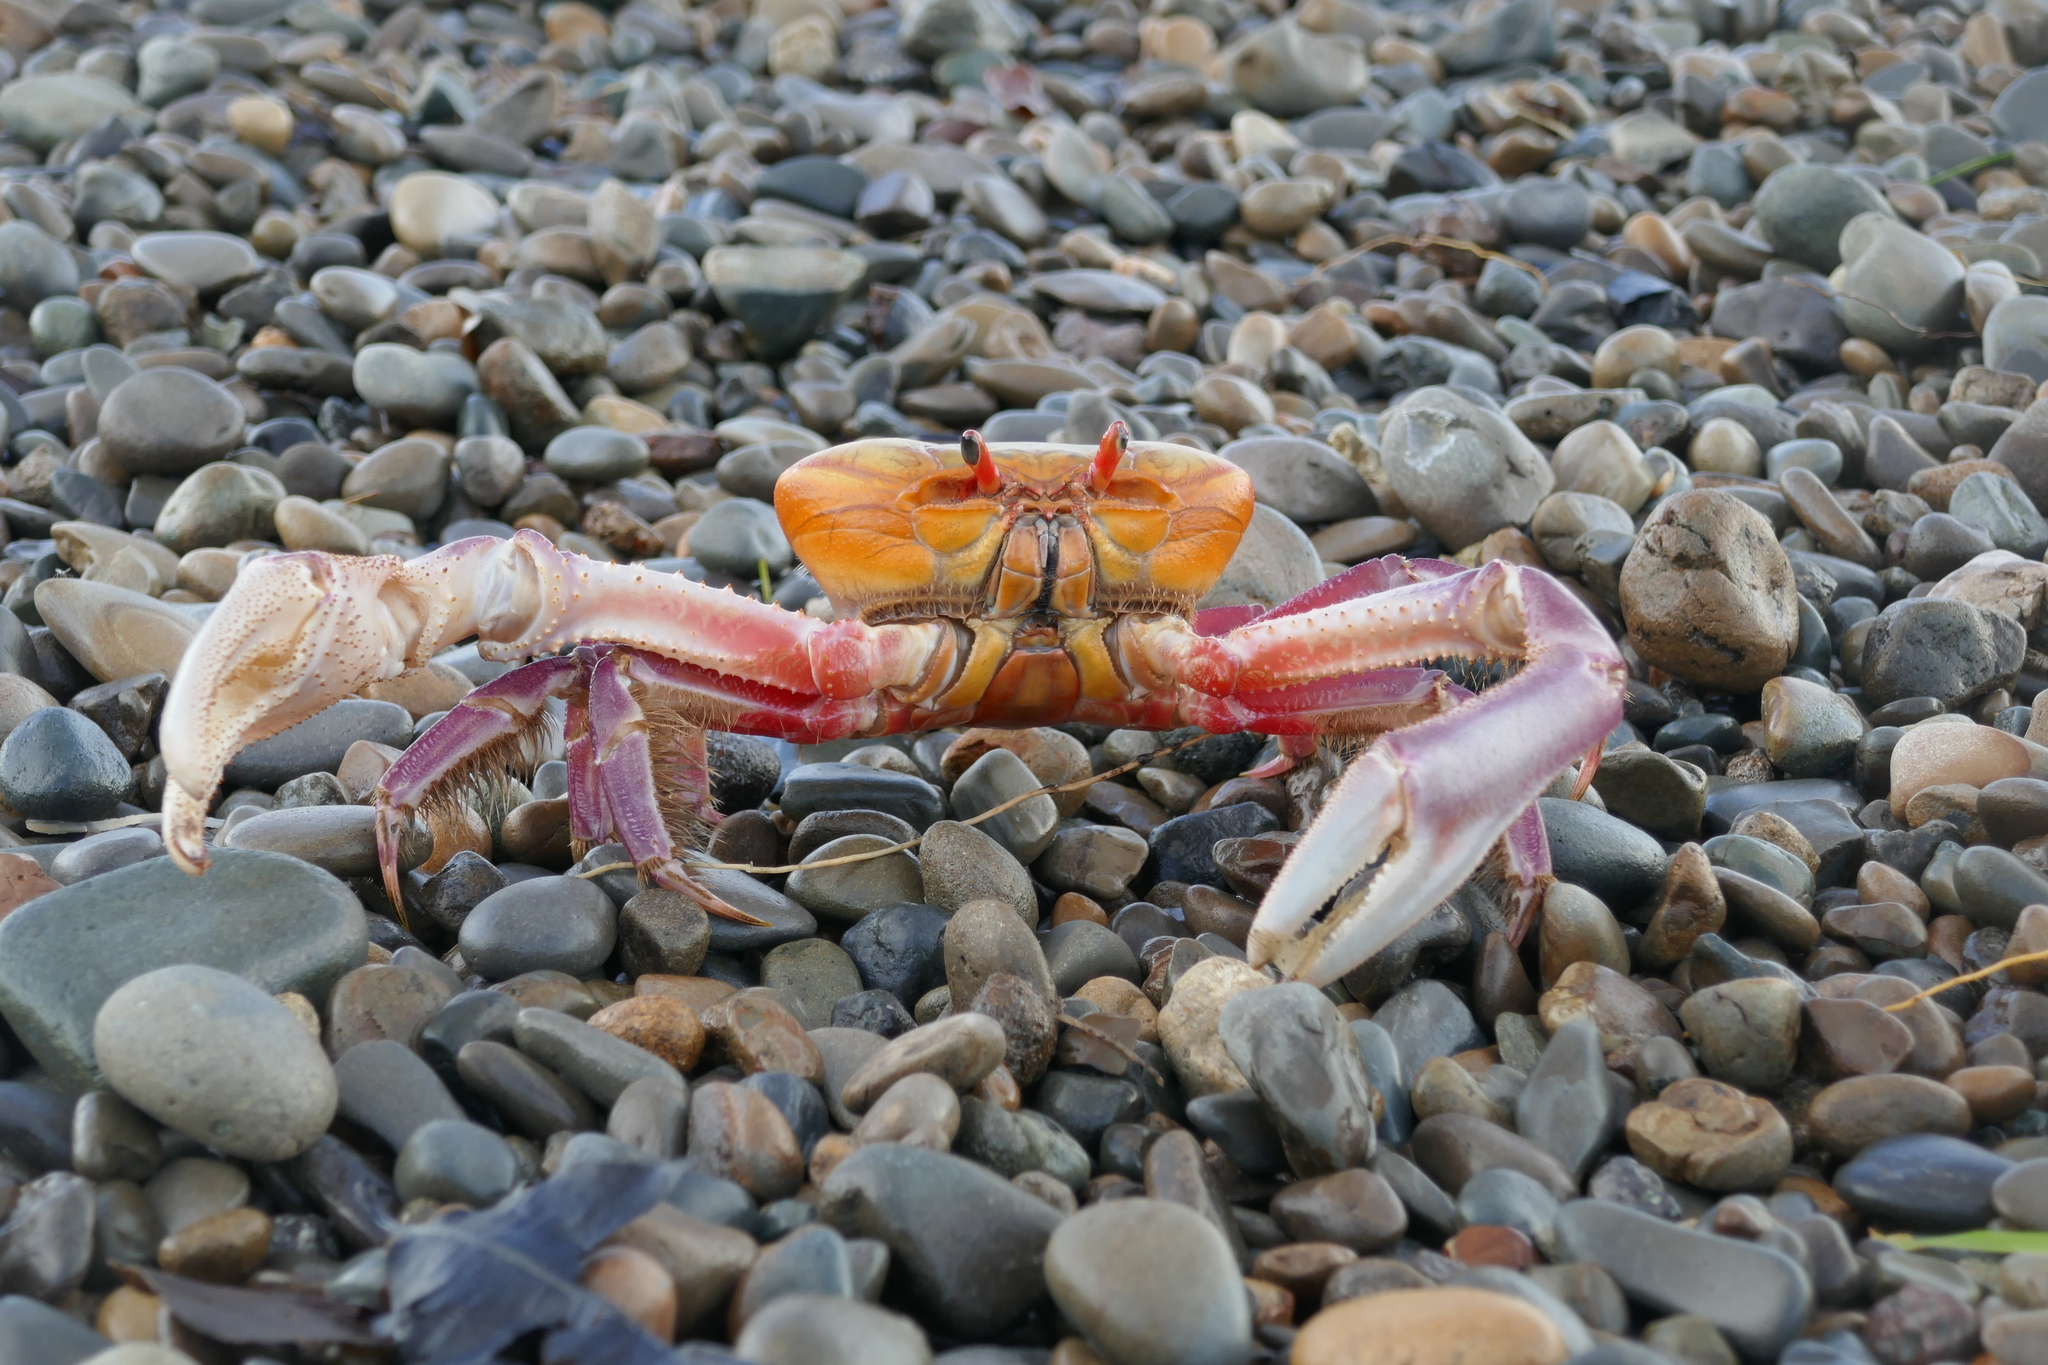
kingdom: Animalia
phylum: Arthropoda
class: Malacostraca
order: Decapoda
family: Ocypodidae
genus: Ucides
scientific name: Ucides occidentalis
